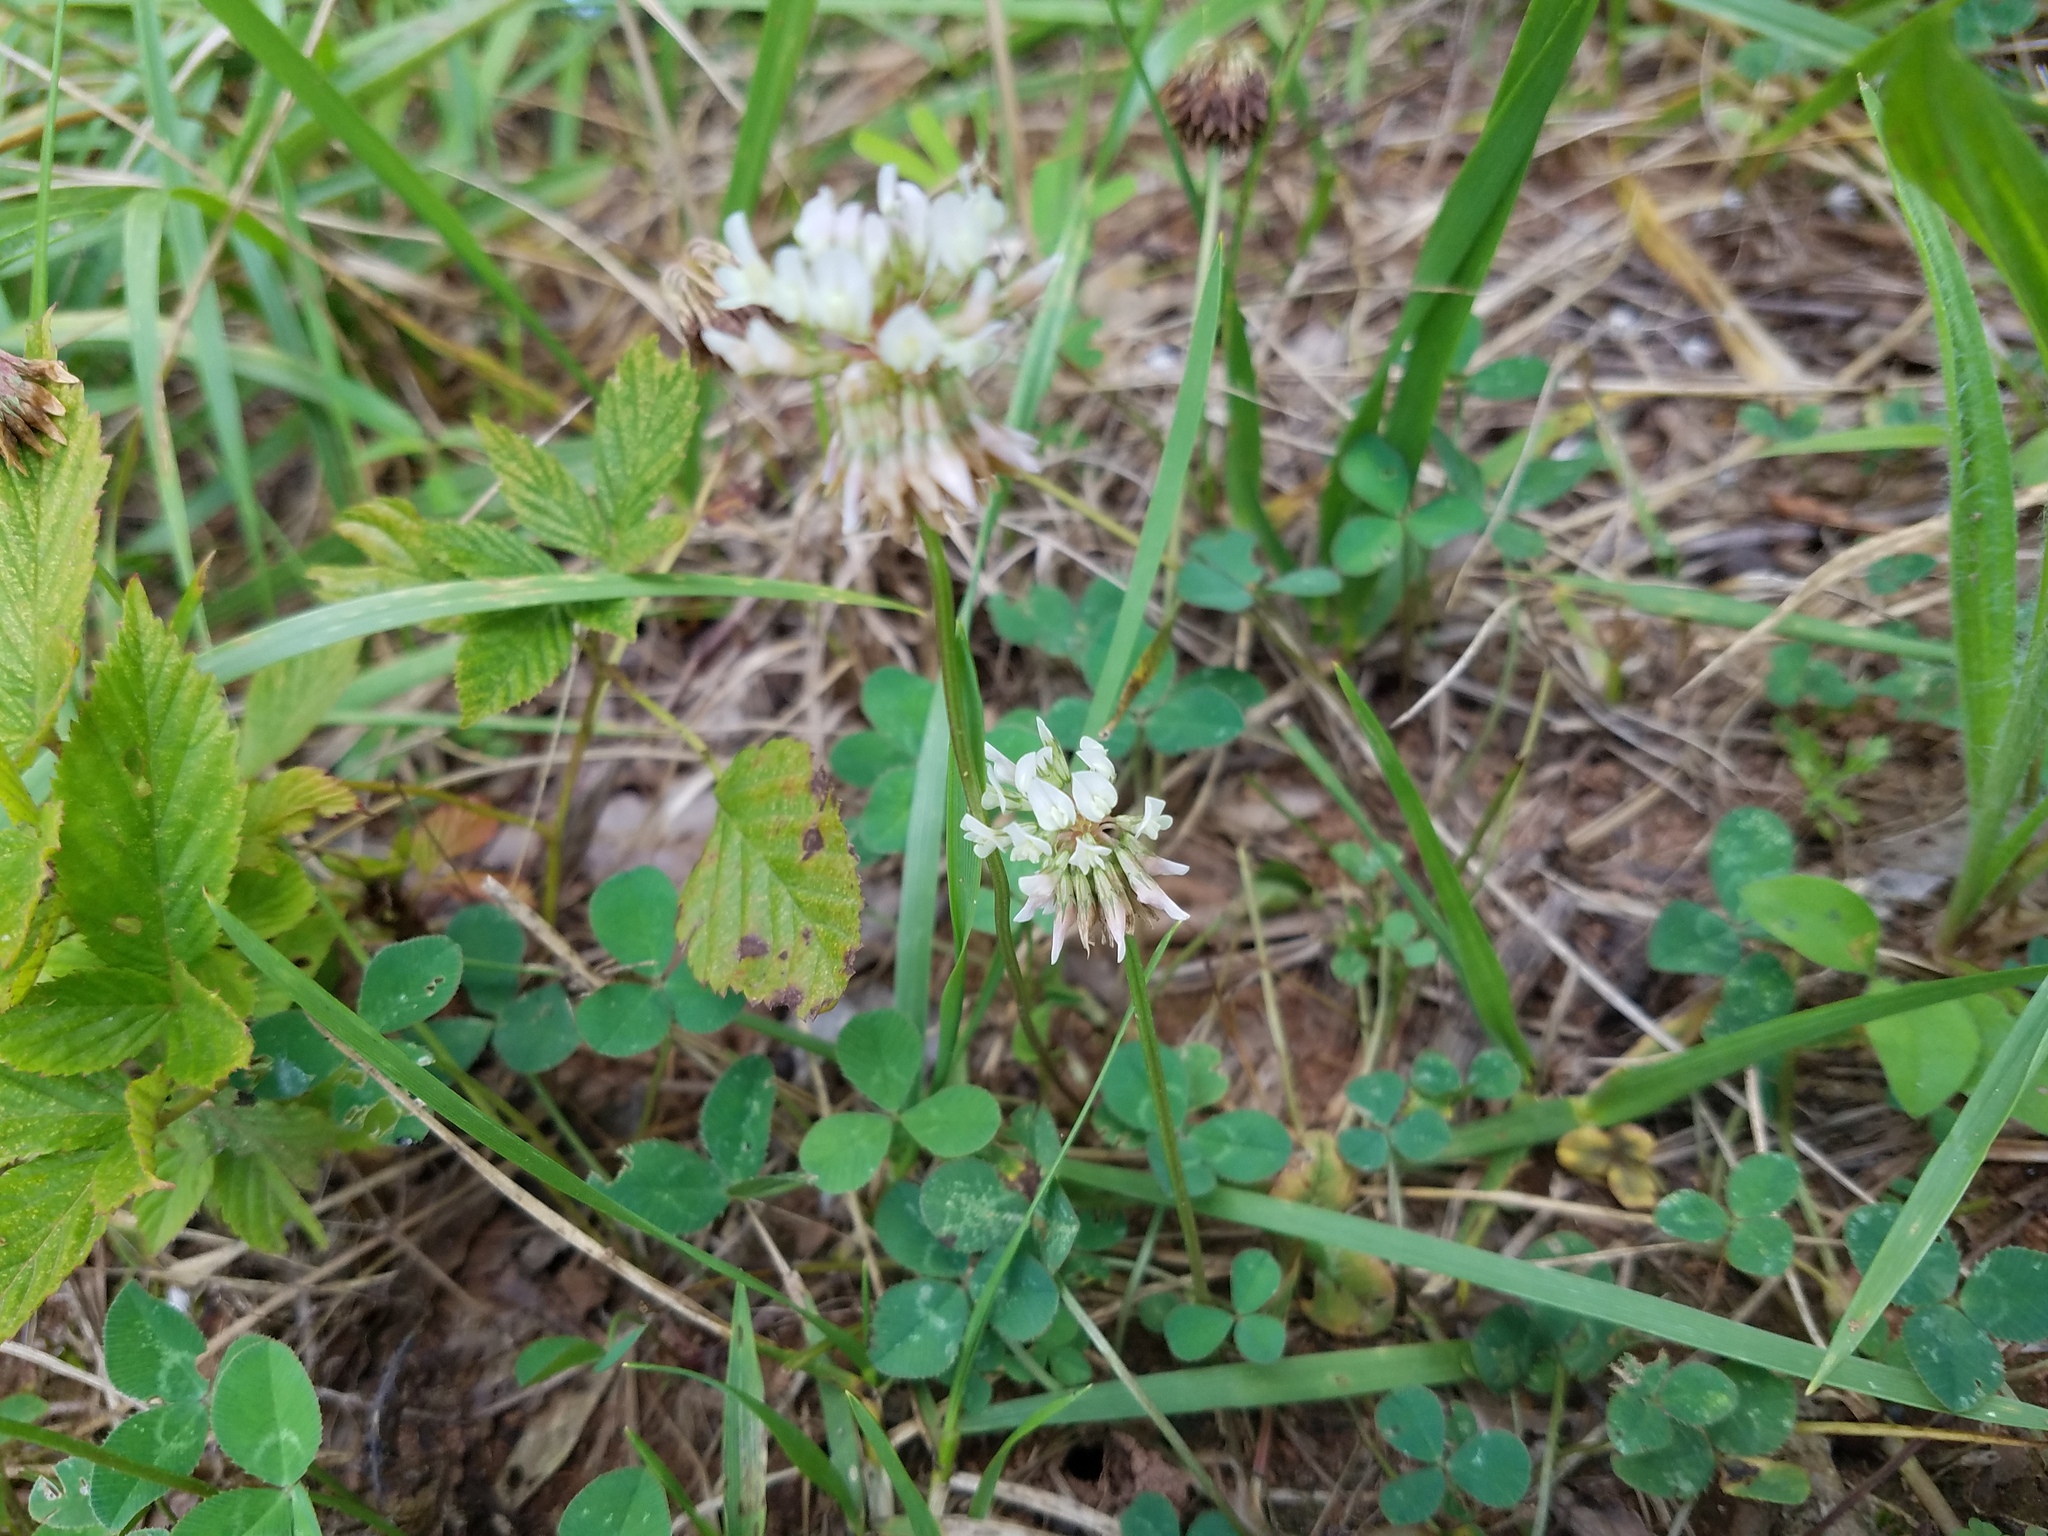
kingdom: Plantae
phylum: Tracheophyta
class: Magnoliopsida
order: Fabales
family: Fabaceae
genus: Trifolium
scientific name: Trifolium repens
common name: White clover
